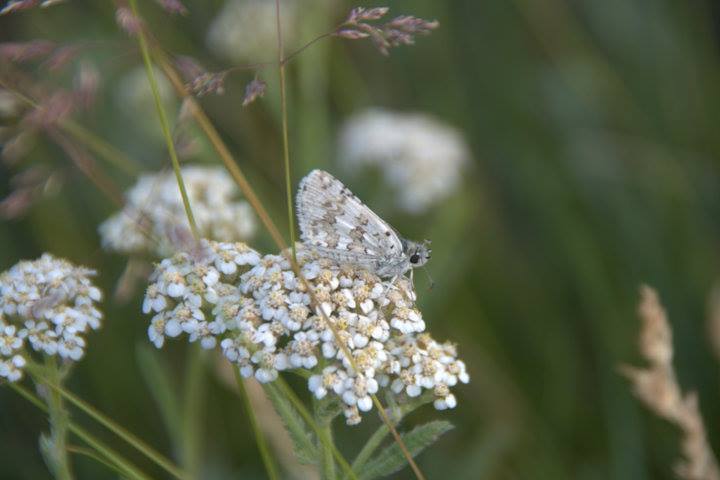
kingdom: Animalia
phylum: Arthropoda
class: Insecta
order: Lepidoptera
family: Hesperiidae
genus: Burnsius
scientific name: Burnsius communis
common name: Common checkered-skipper
